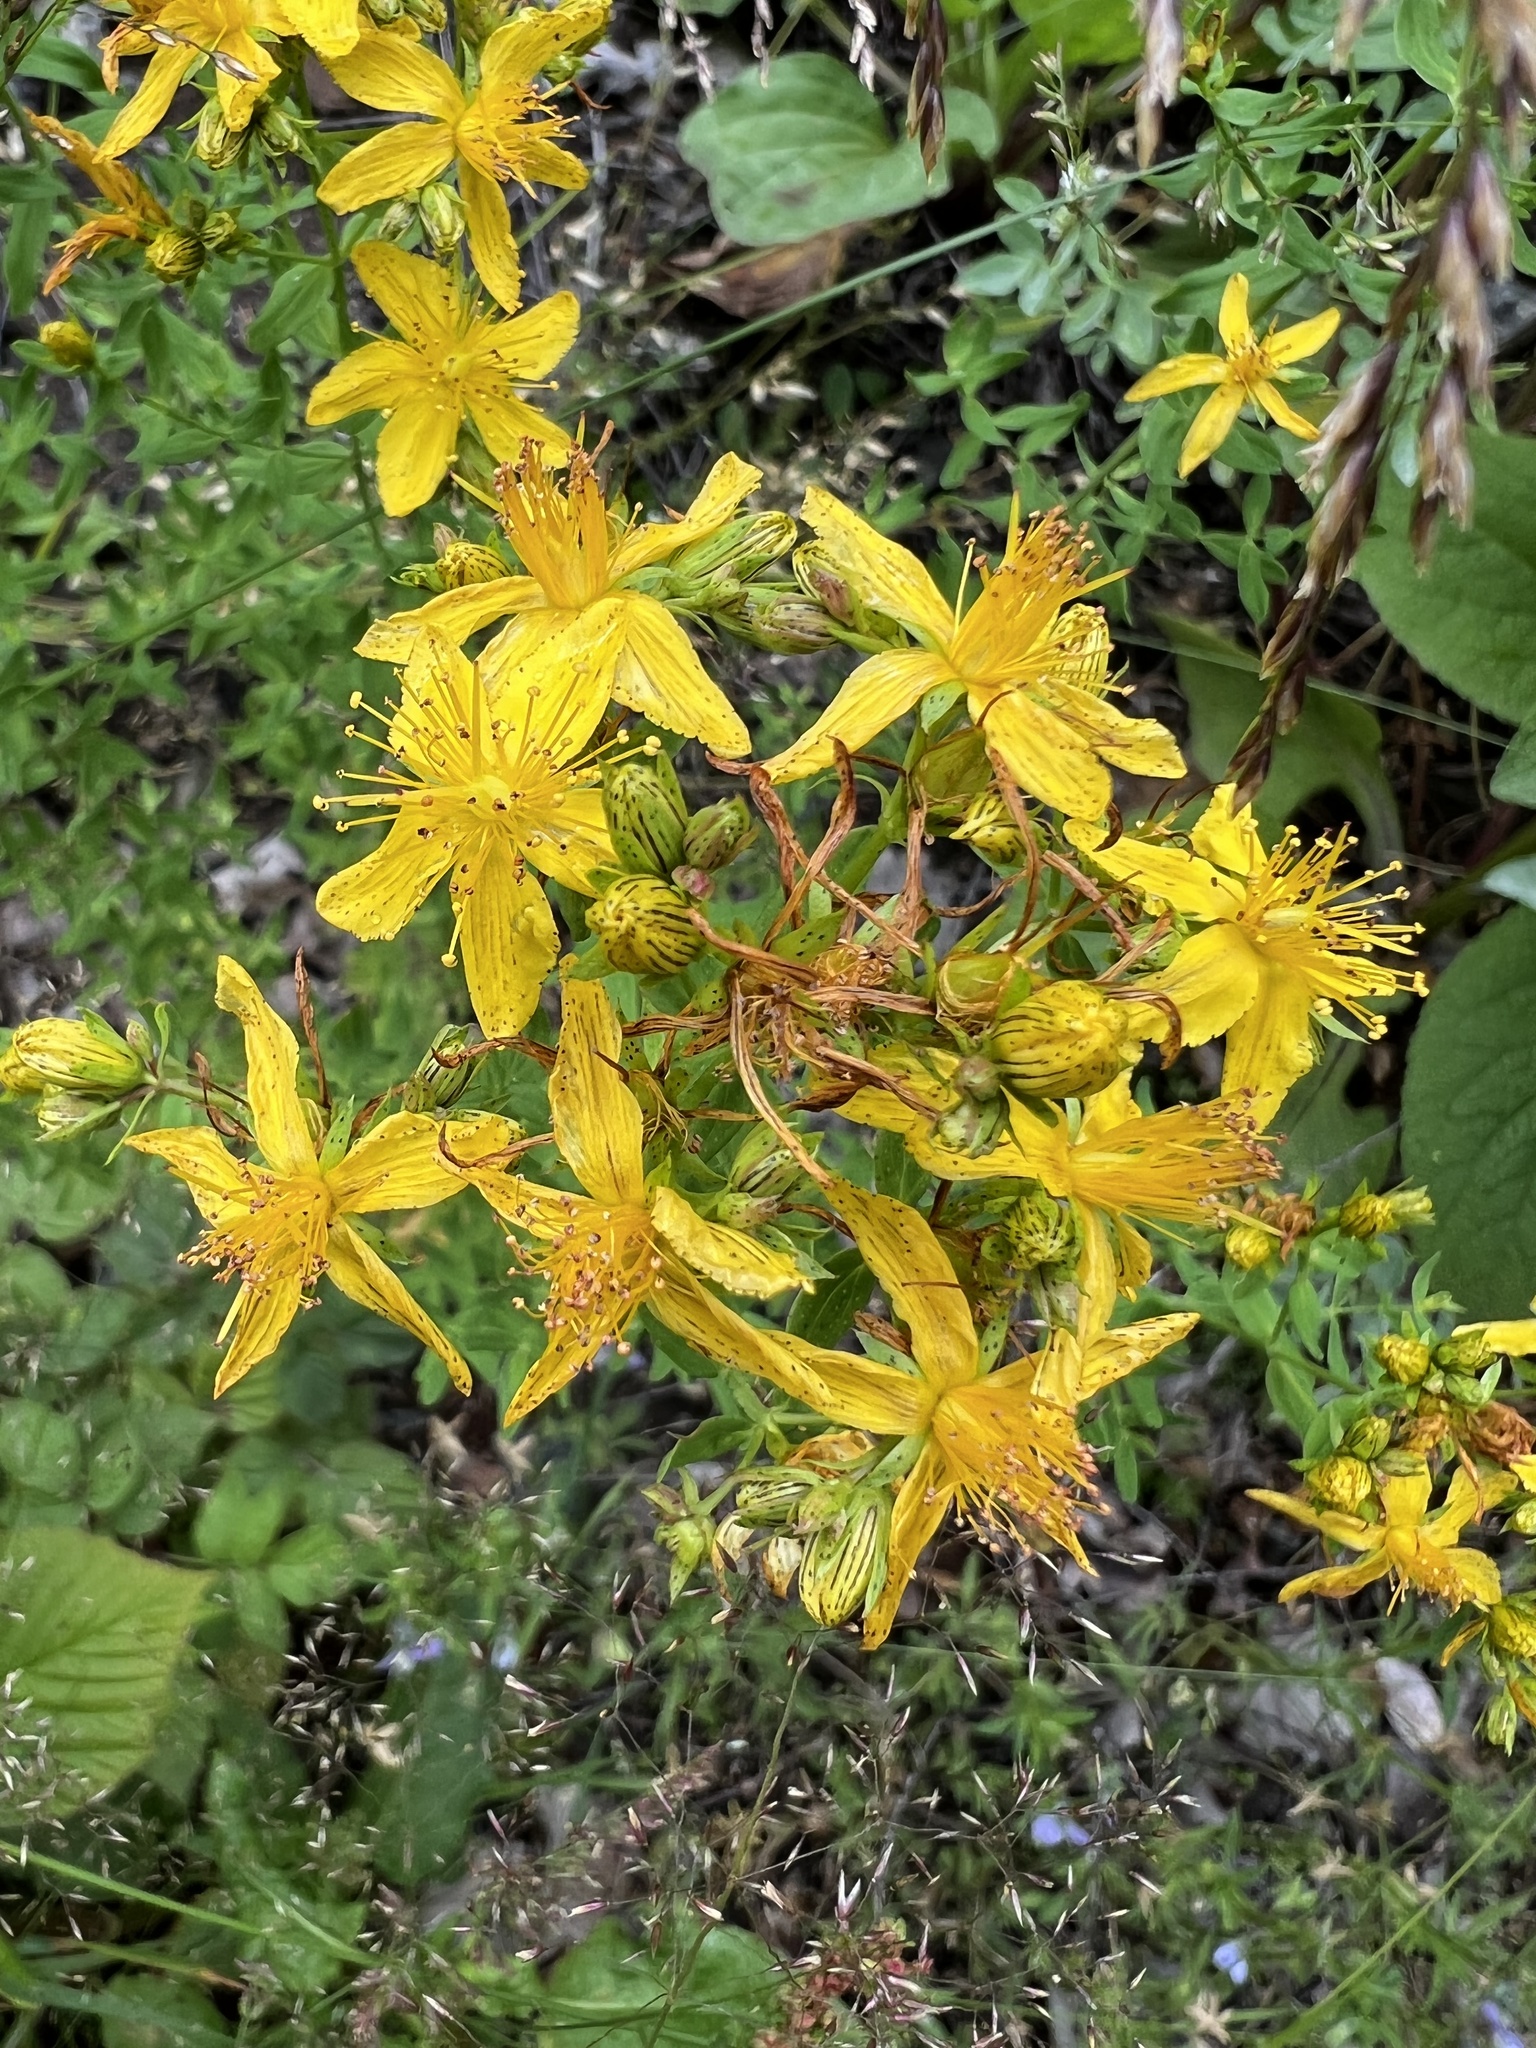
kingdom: Plantae
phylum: Tracheophyta
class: Magnoliopsida
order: Malpighiales
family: Hypericaceae
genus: Hypericum
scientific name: Hypericum perforatum
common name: Common st. johnswort
